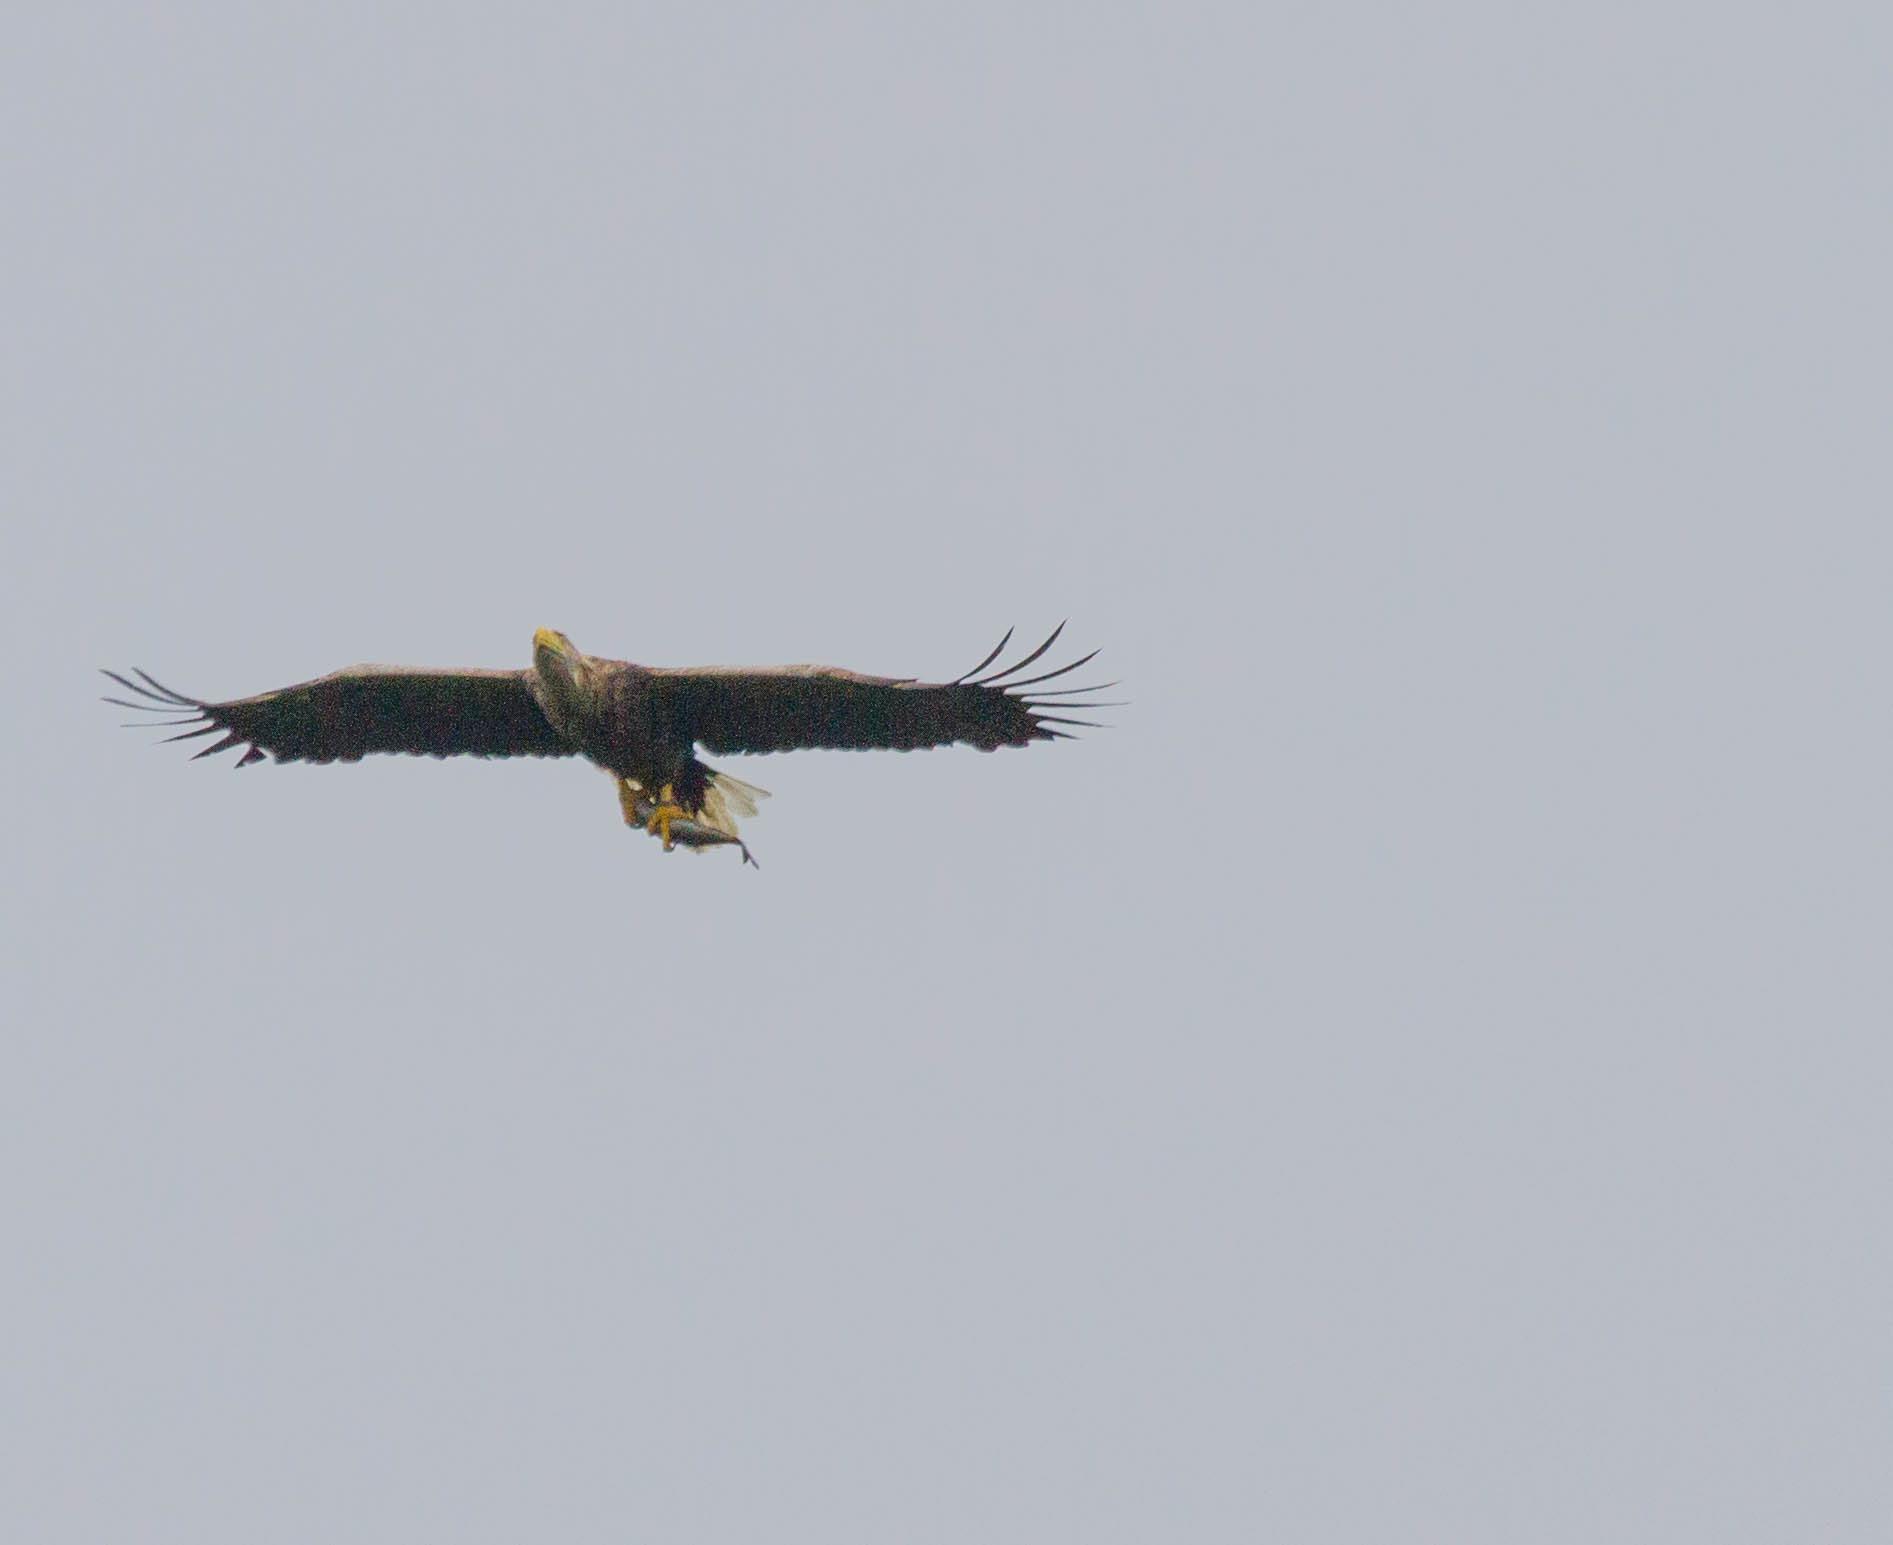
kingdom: Animalia
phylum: Chordata
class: Aves
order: Accipitriformes
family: Accipitridae
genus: Haliaeetus
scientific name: Haliaeetus albicilla
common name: White-tailed eagle
